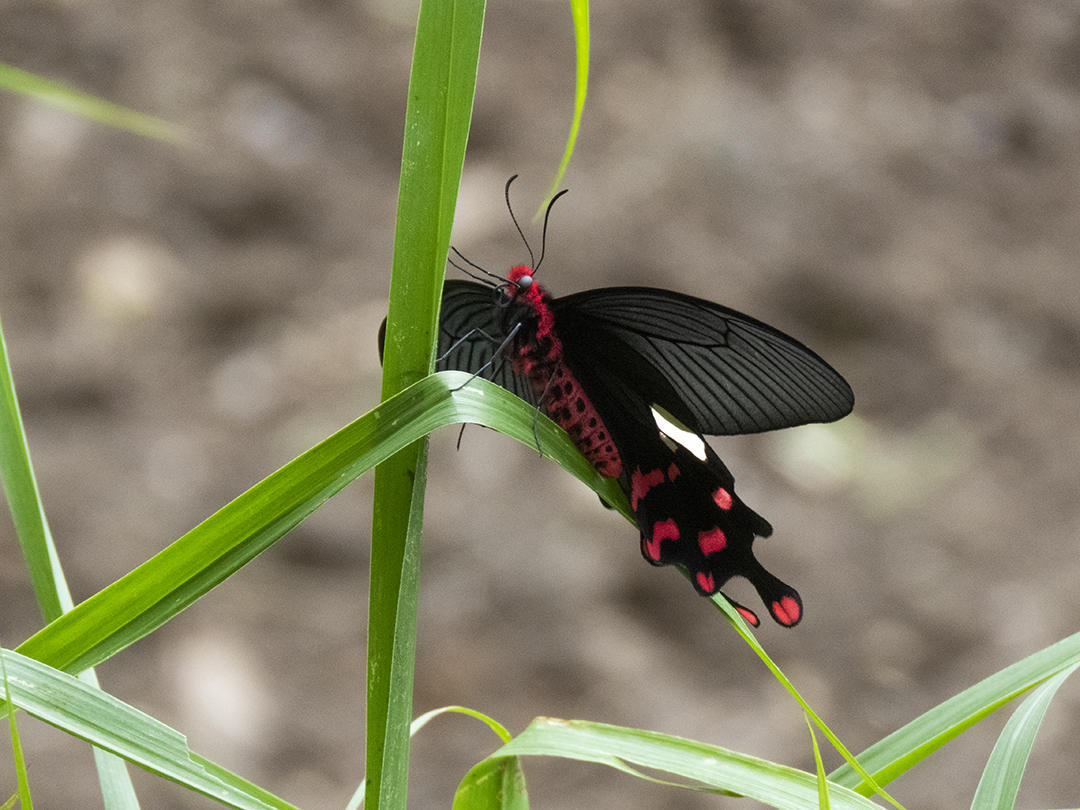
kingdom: Animalia
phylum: Arthropoda
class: Insecta
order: Lepidoptera
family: Papilionidae
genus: Byasa
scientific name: Byasa polyeuctes
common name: Common windmill
